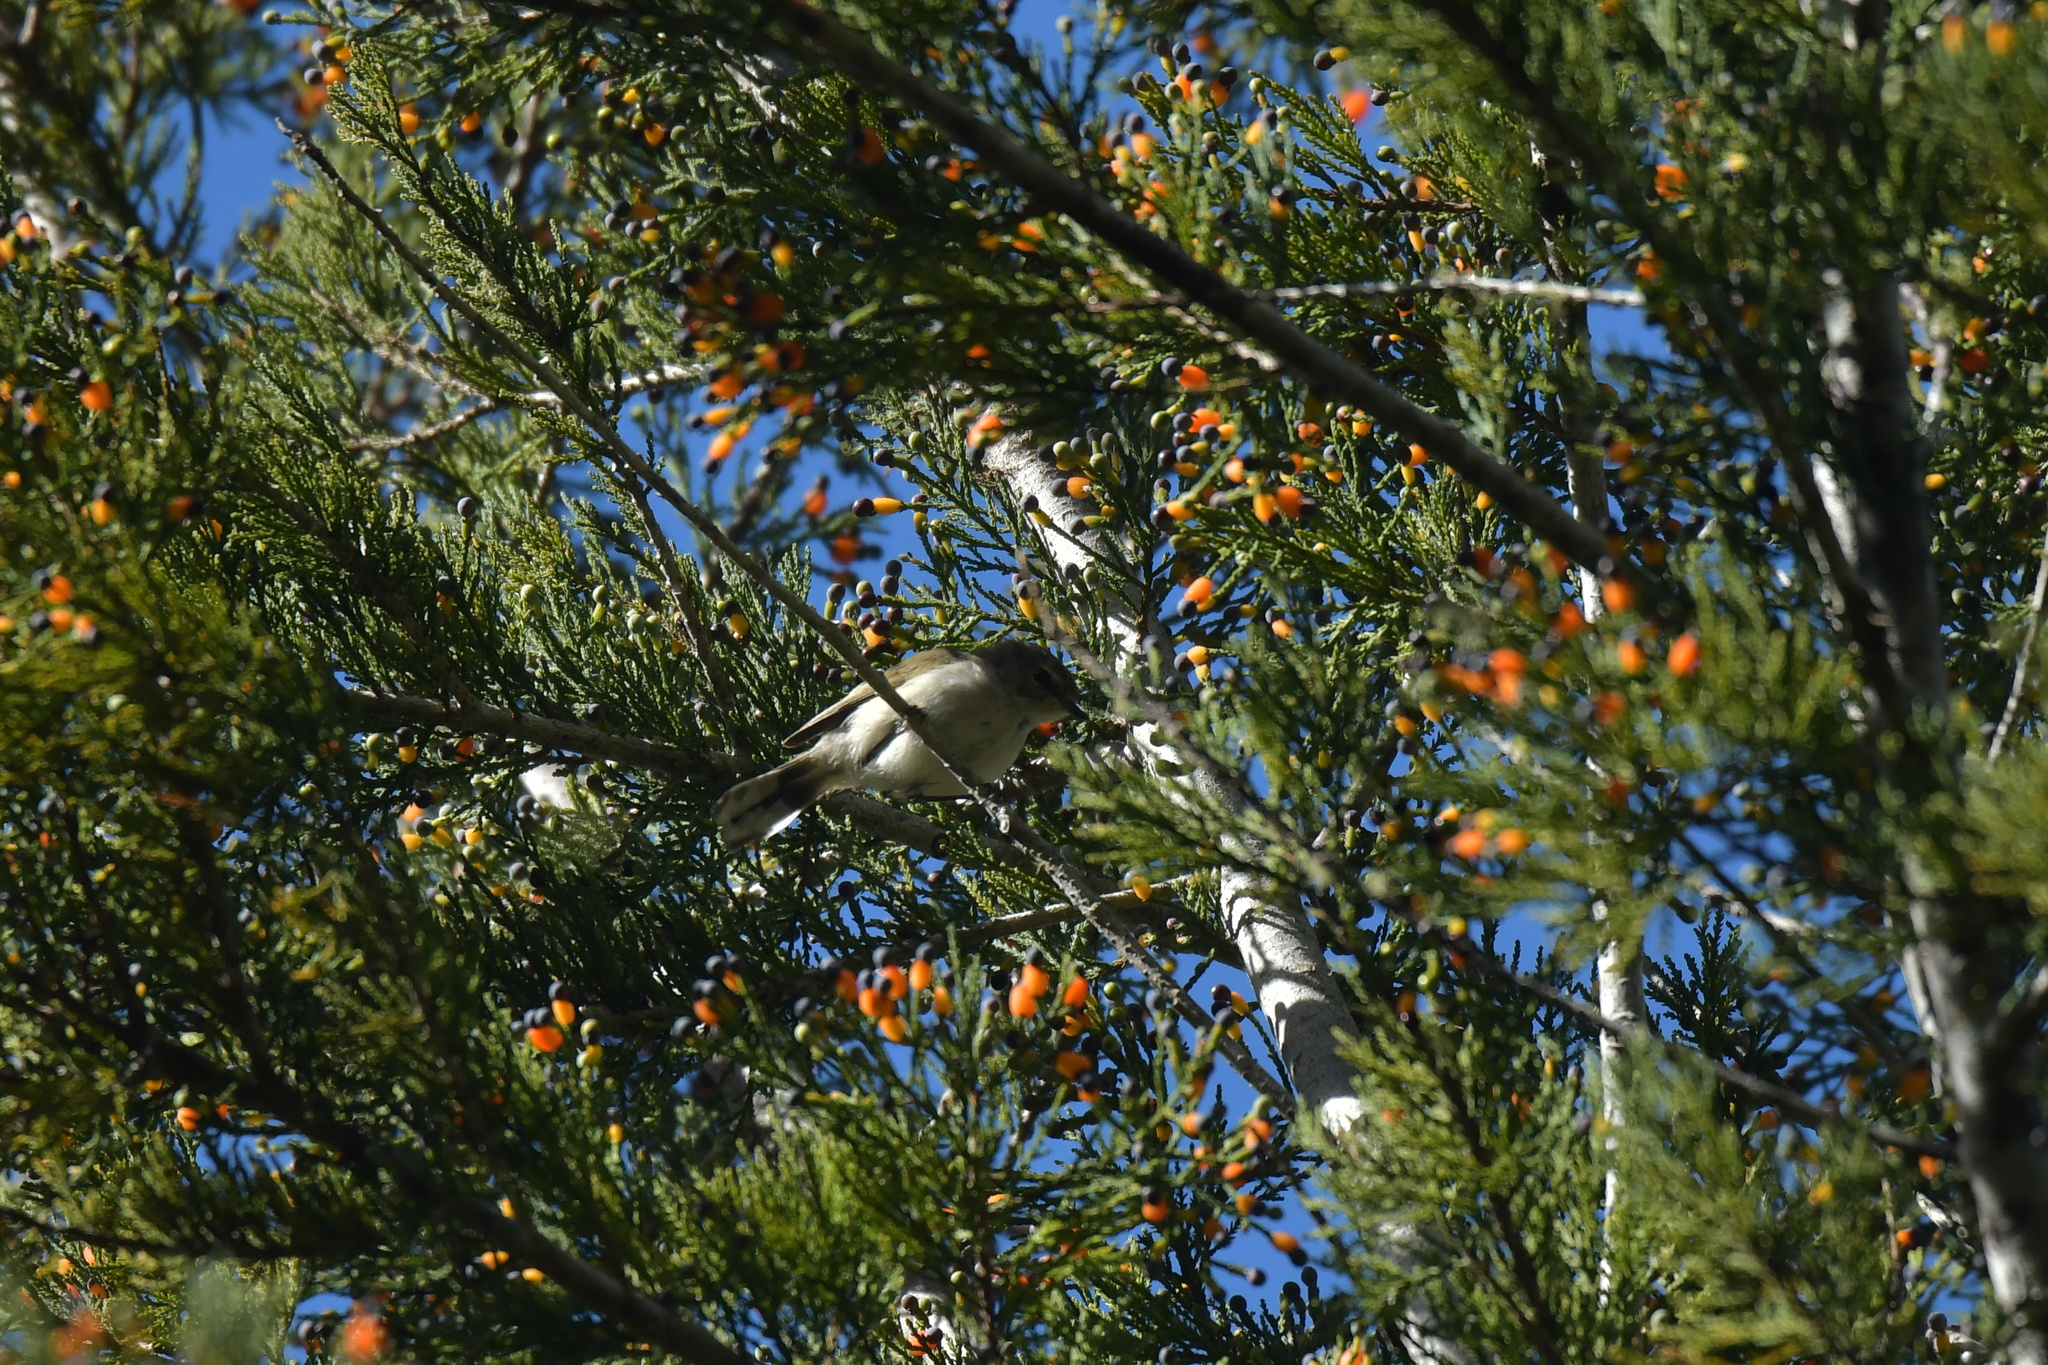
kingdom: Animalia
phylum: Chordata
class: Aves
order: Passeriformes
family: Acanthizidae
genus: Gerygone
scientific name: Gerygone igata
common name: Grey gerygone
